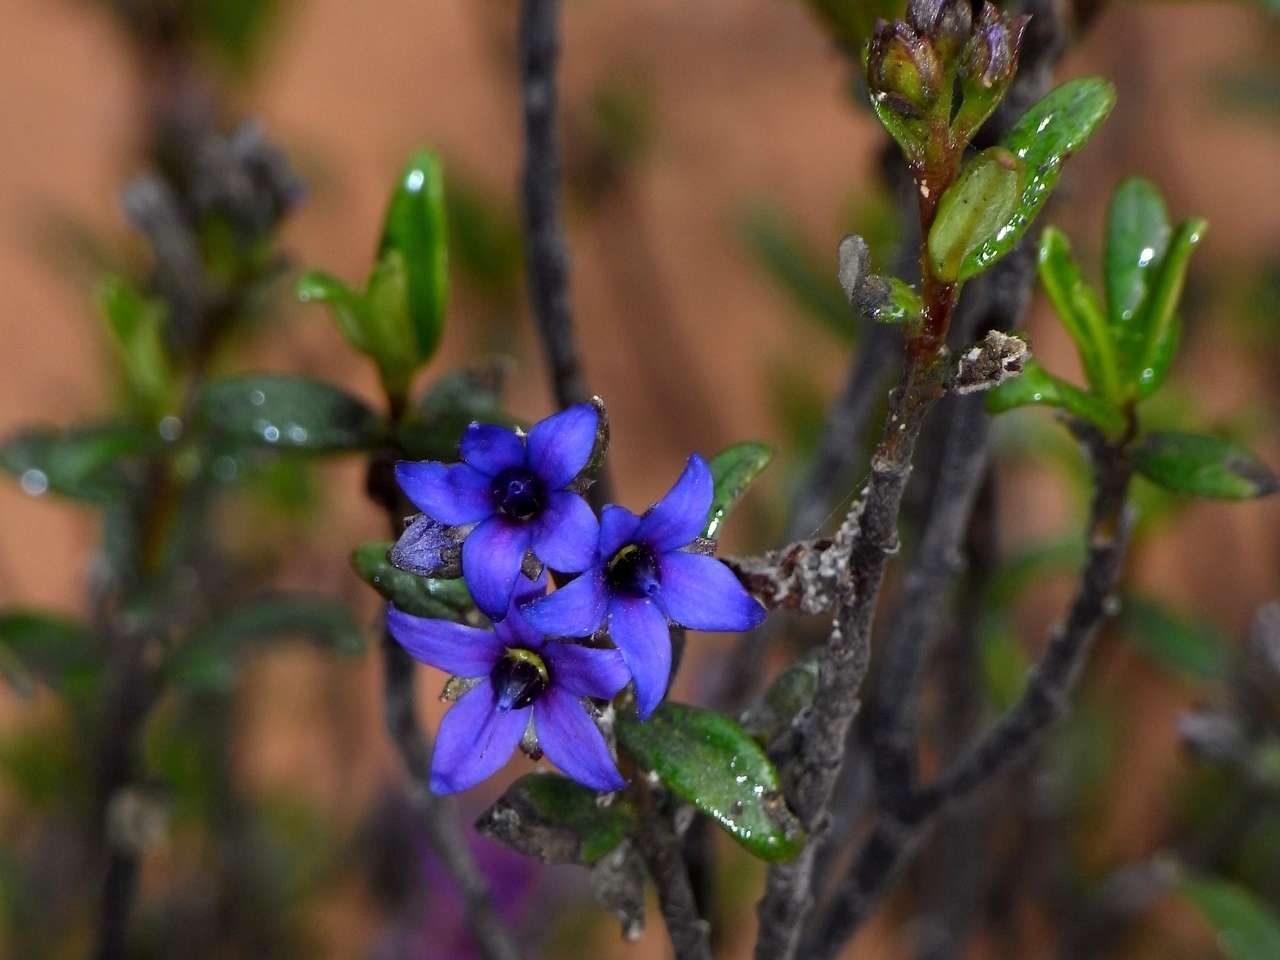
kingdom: Plantae
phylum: Tracheophyta
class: Magnoliopsida
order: Boraginales
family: Ehretiaceae
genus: Halgania
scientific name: Halgania andromedifolia
